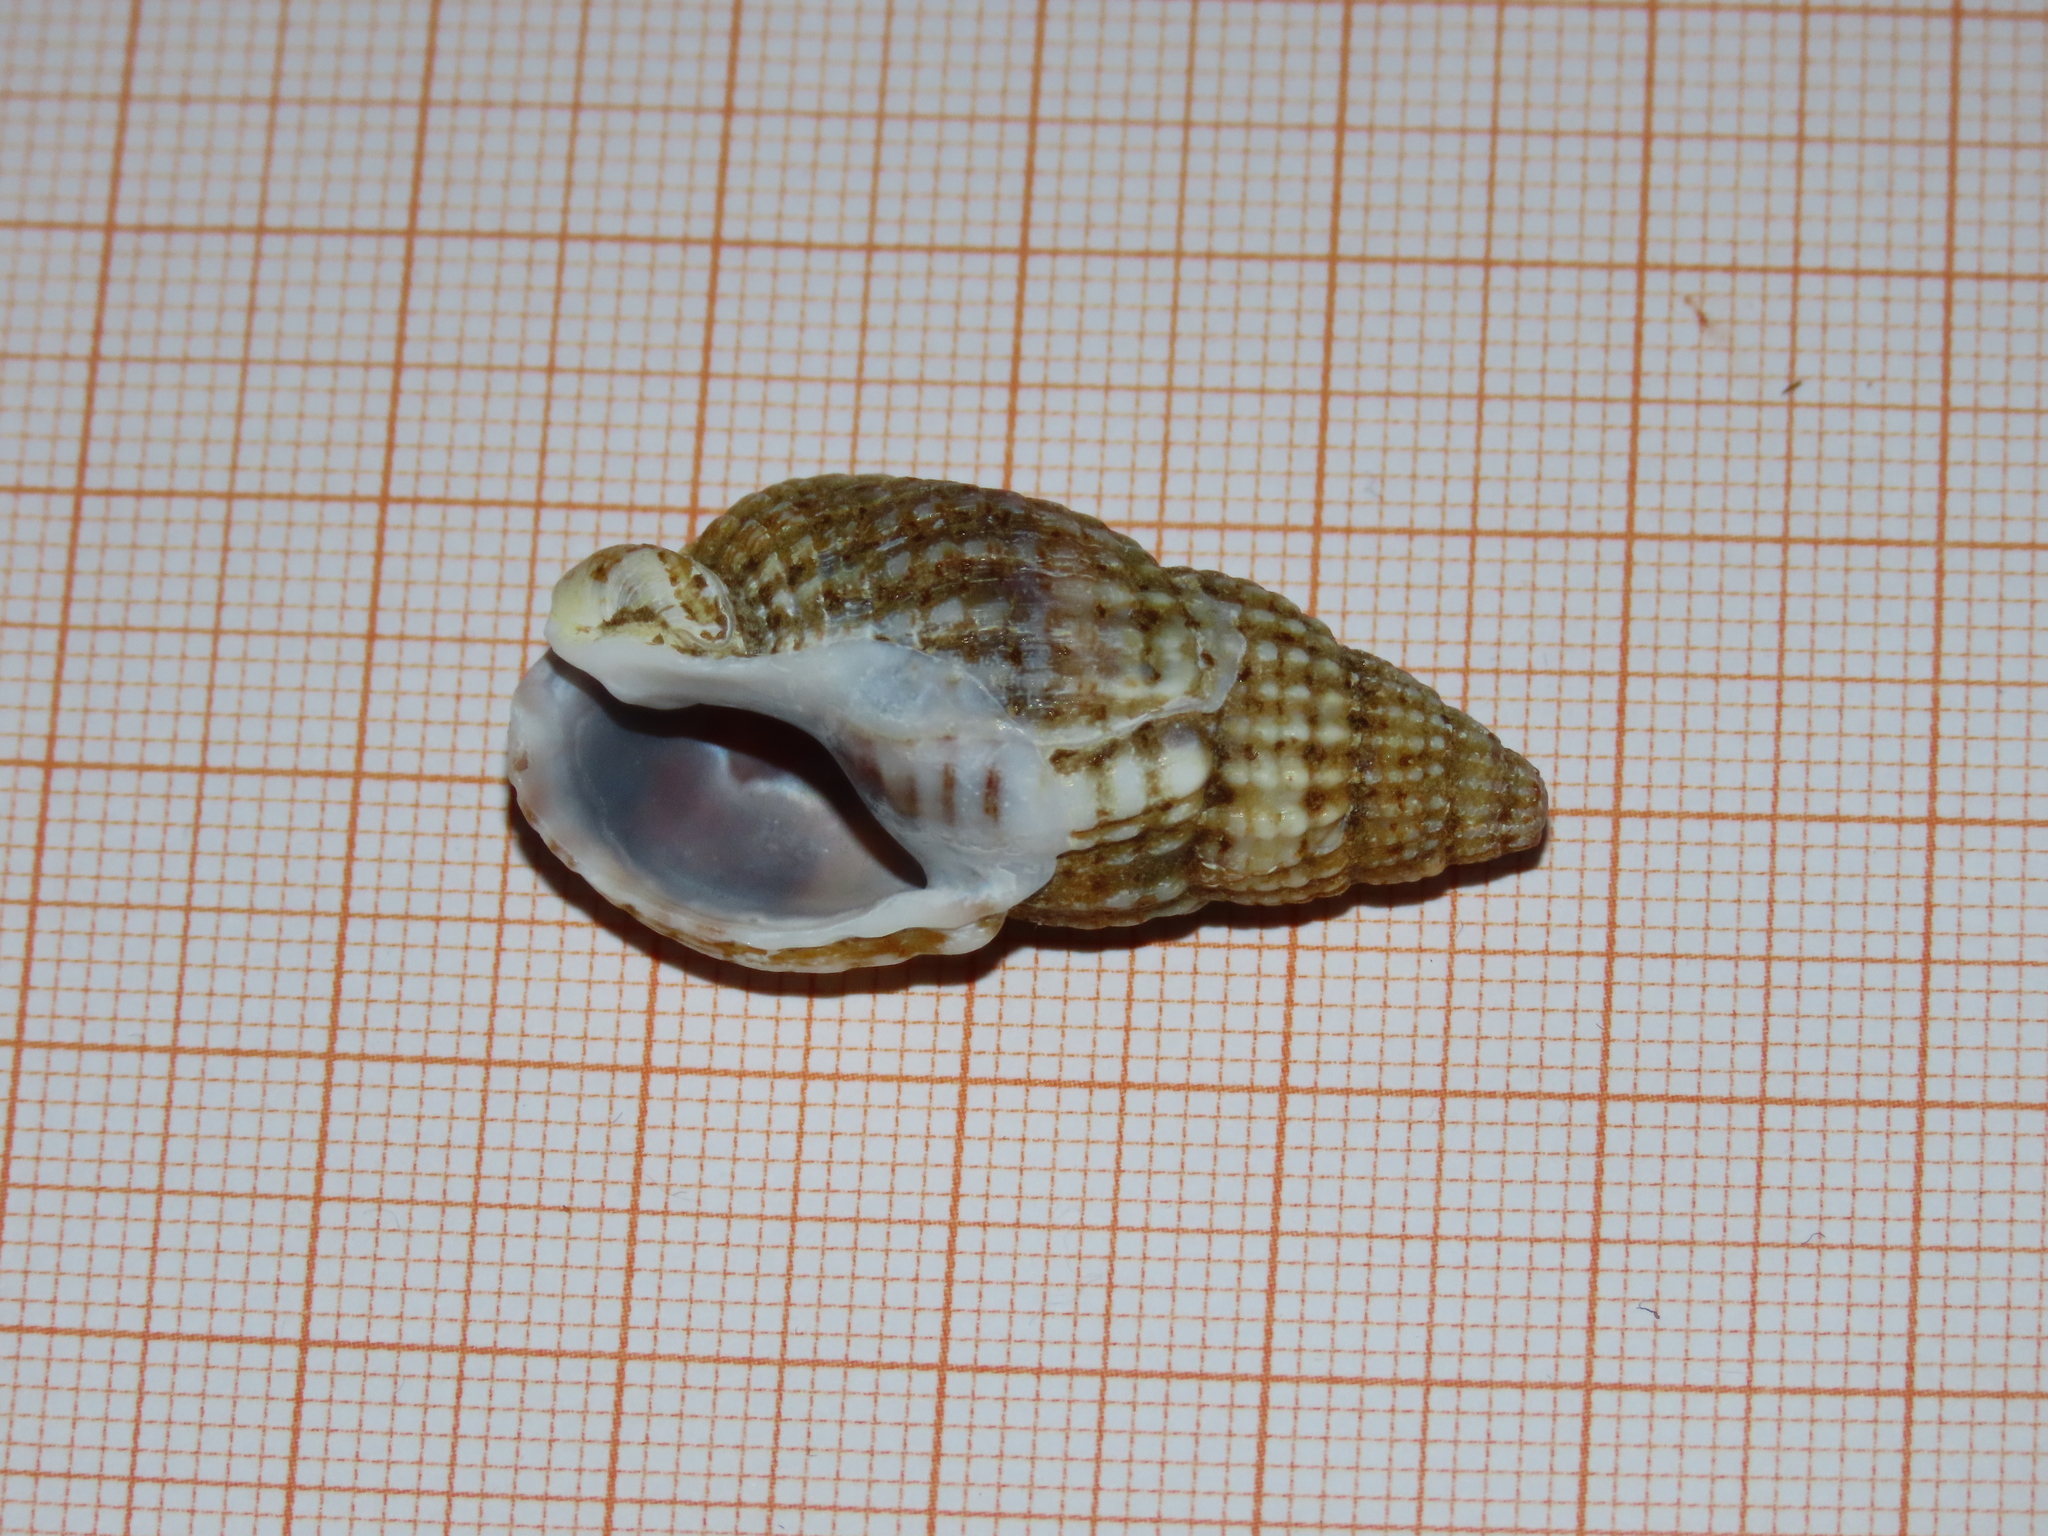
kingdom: Animalia
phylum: Mollusca
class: Gastropoda
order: Neogastropoda
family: Nassariidae
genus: Tritia
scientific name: Tritia nitida
